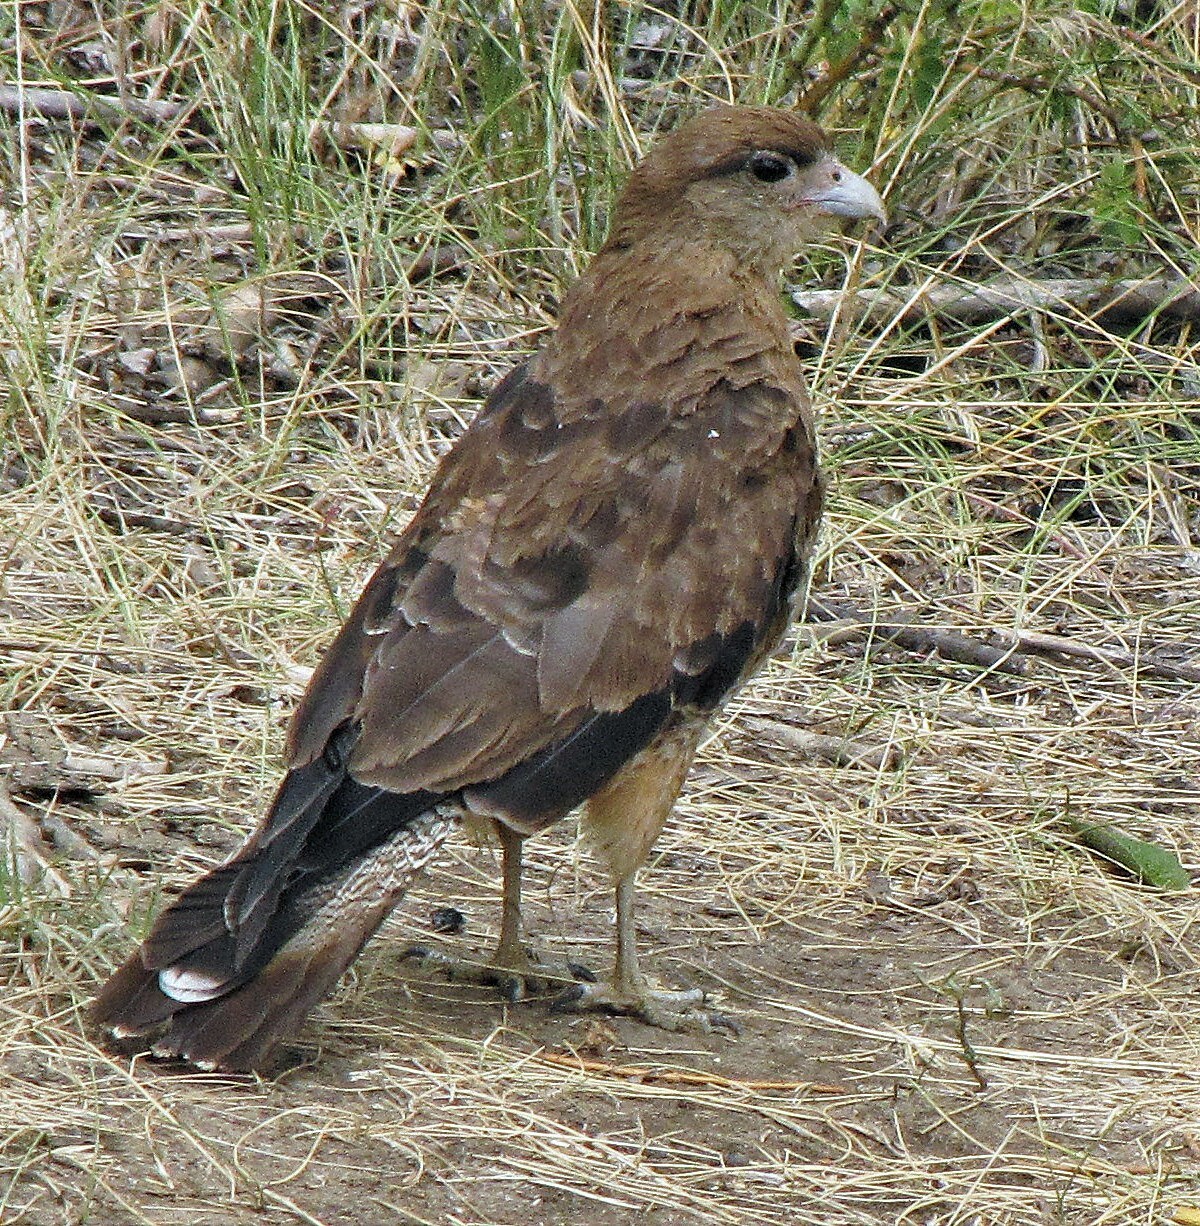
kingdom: Animalia
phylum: Chordata
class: Aves
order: Falconiformes
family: Falconidae
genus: Daptrius
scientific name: Daptrius
